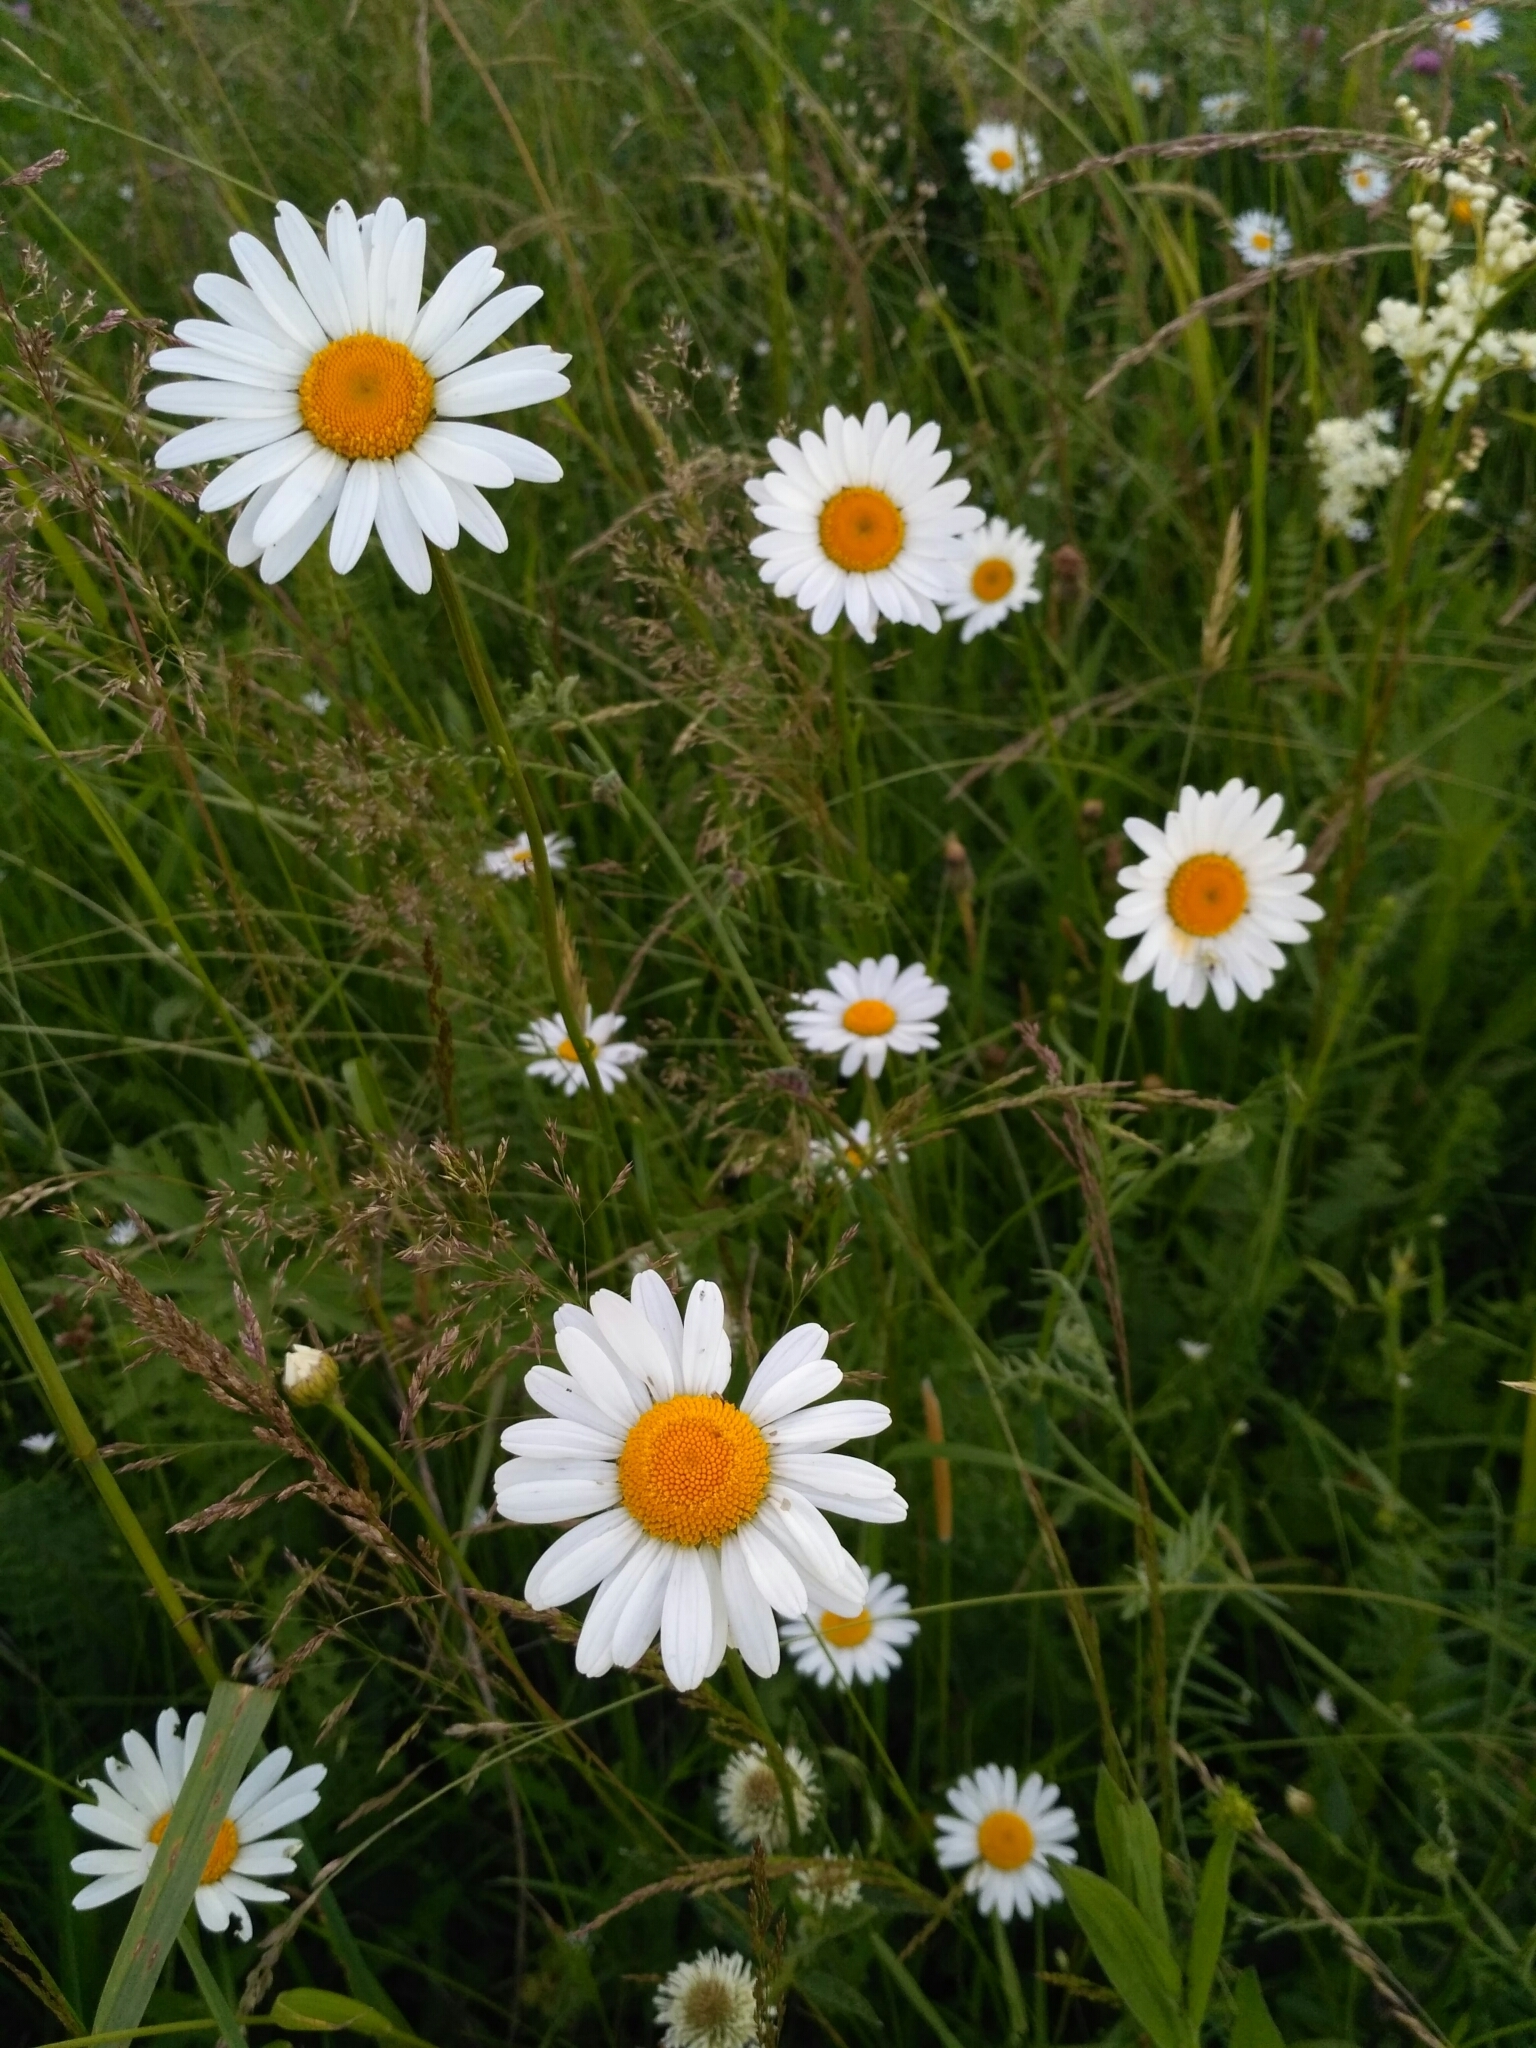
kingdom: Plantae
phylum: Tracheophyta
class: Magnoliopsida
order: Asterales
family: Asteraceae
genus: Leucanthemum
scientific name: Leucanthemum vulgare
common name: Oxeye daisy
